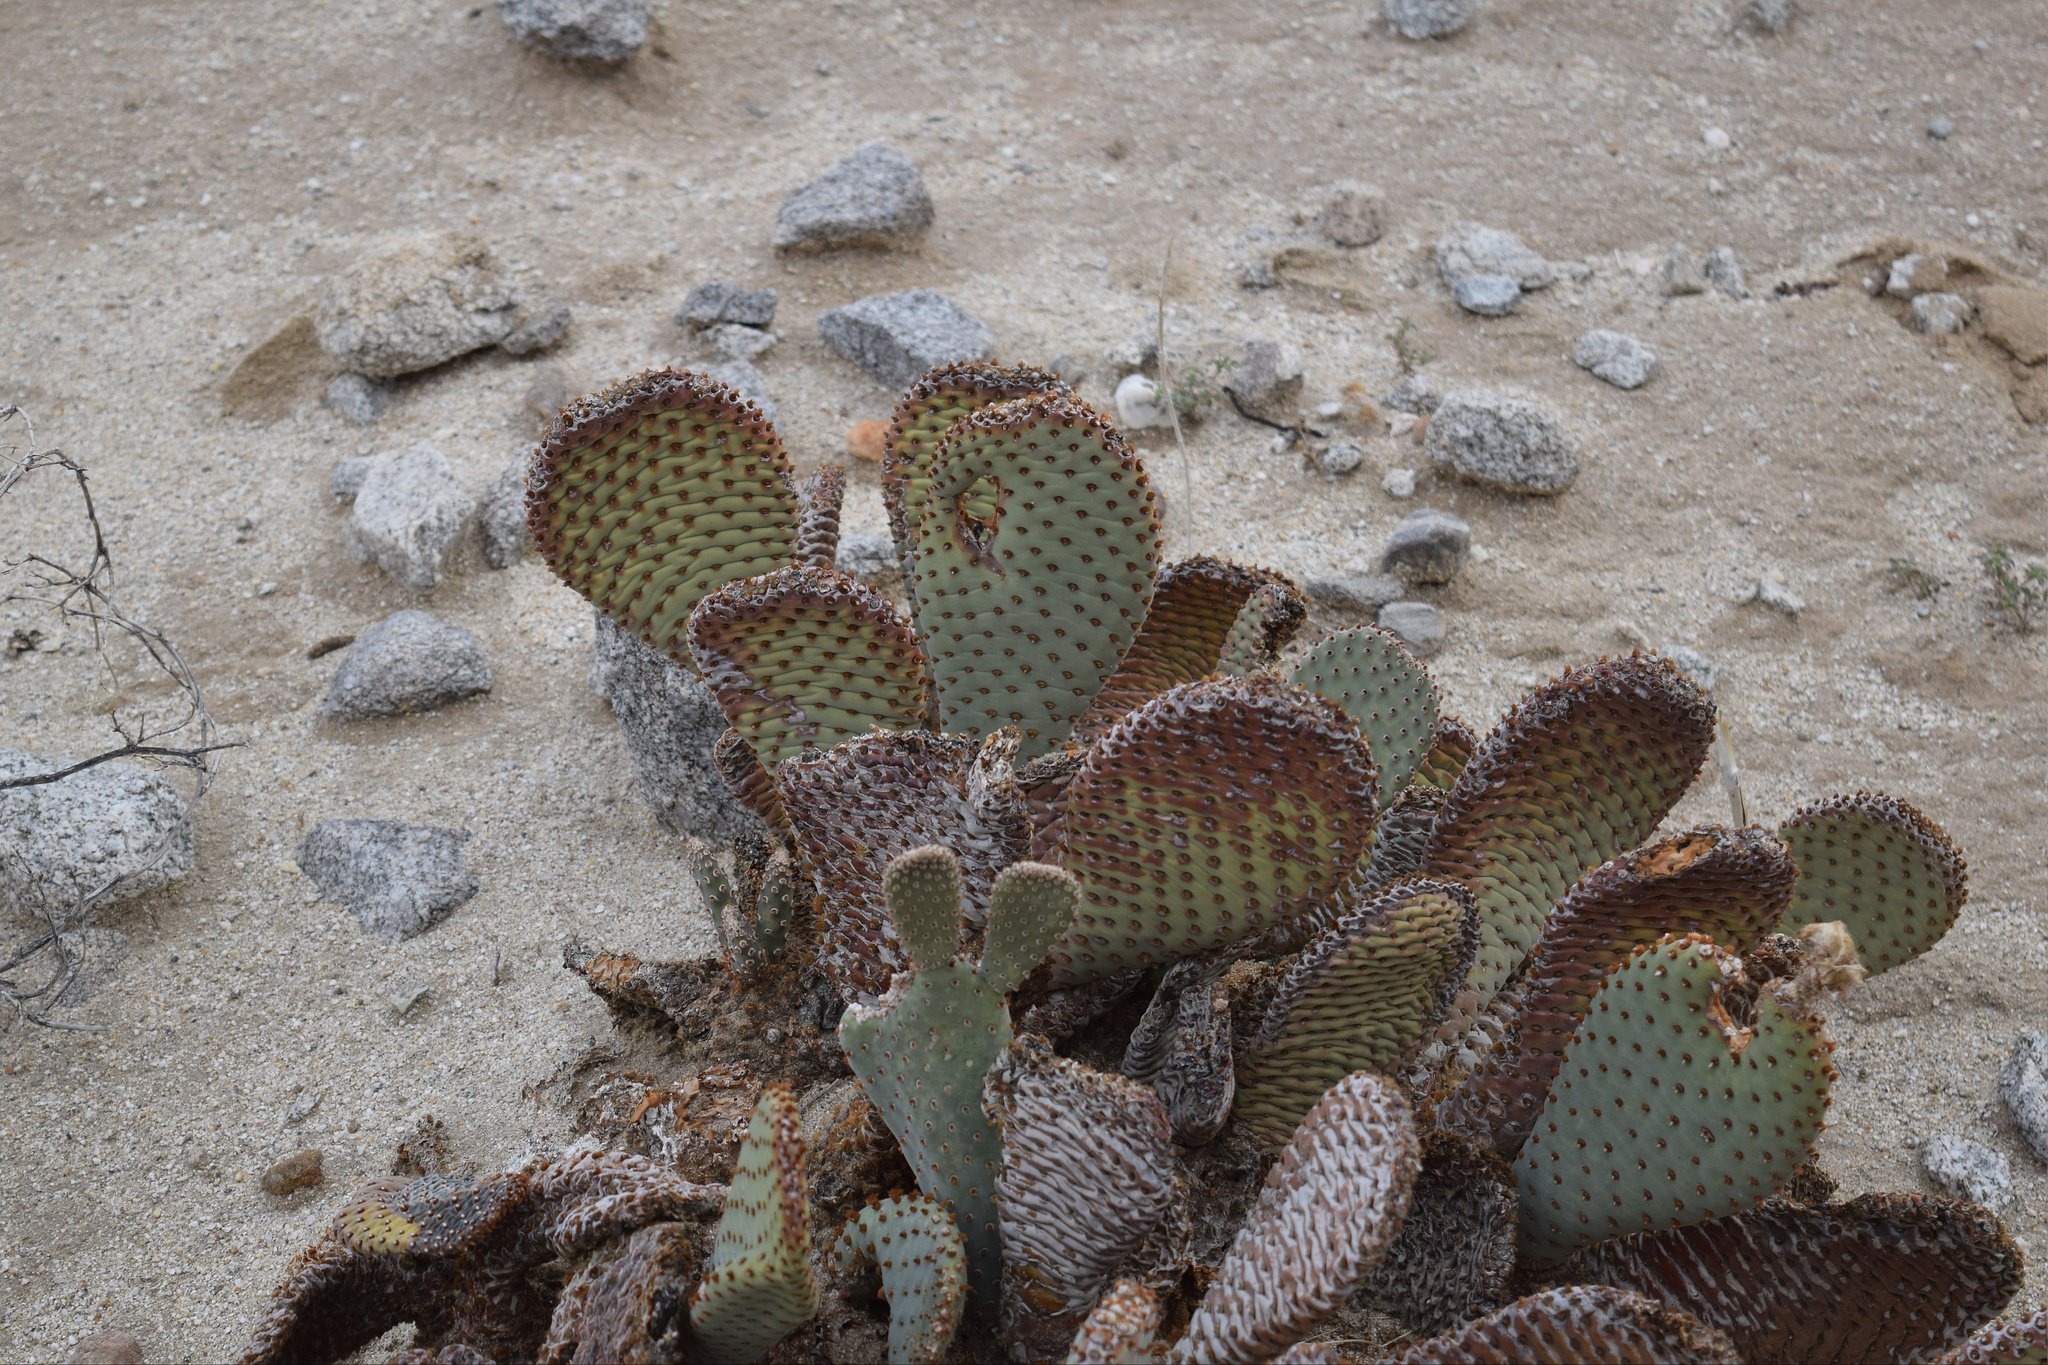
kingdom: Plantae
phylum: Tracheophyta
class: Magnoliopsida
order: Caryophyllales
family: Cactaceae
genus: Opuntia
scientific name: Opuntia basilaris
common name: Beavertail prickly-pear
